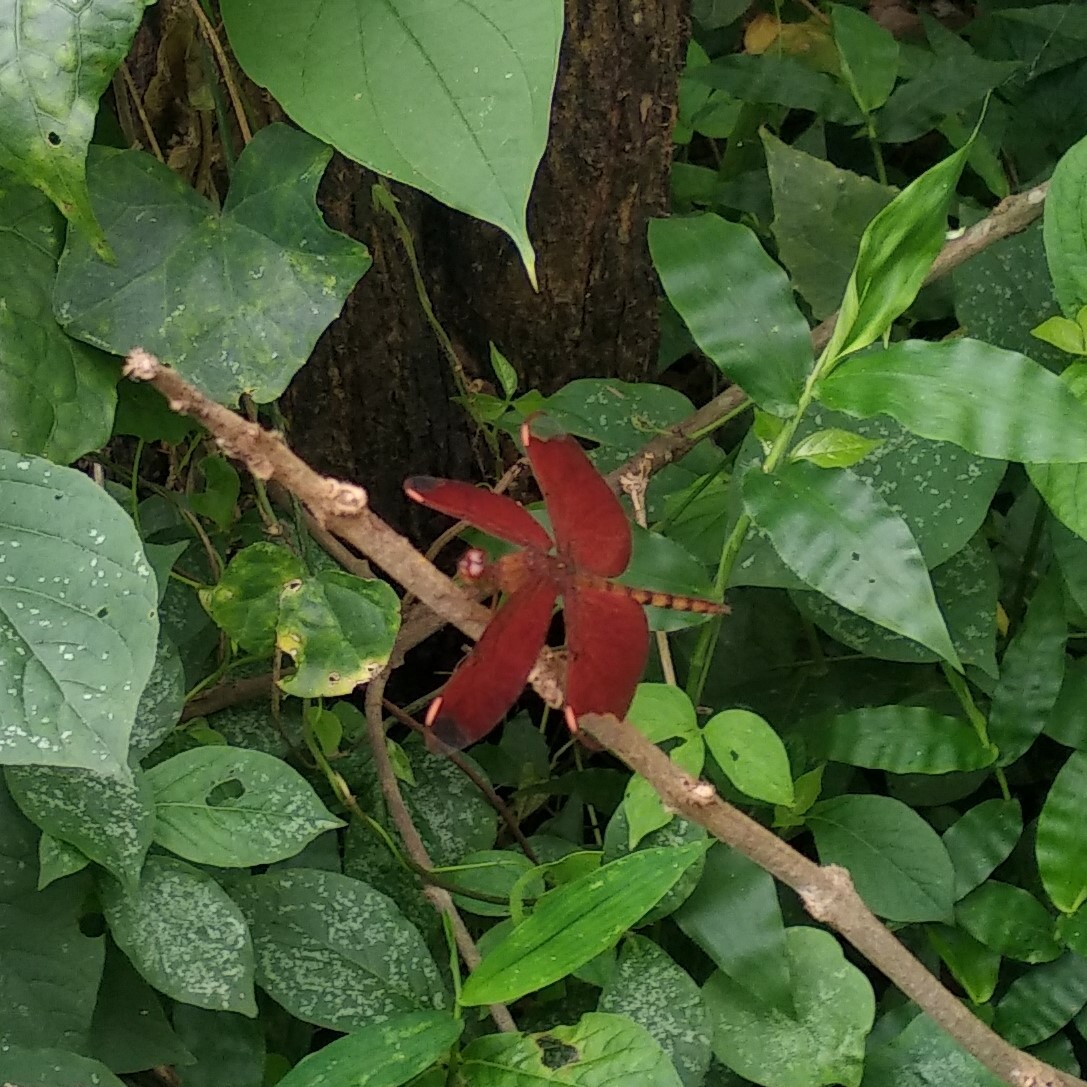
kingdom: Animalia
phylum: Arthropoda
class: Insecta
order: Odonata
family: Libellulidae
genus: Neurothemis
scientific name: Neurothemis fulvia
